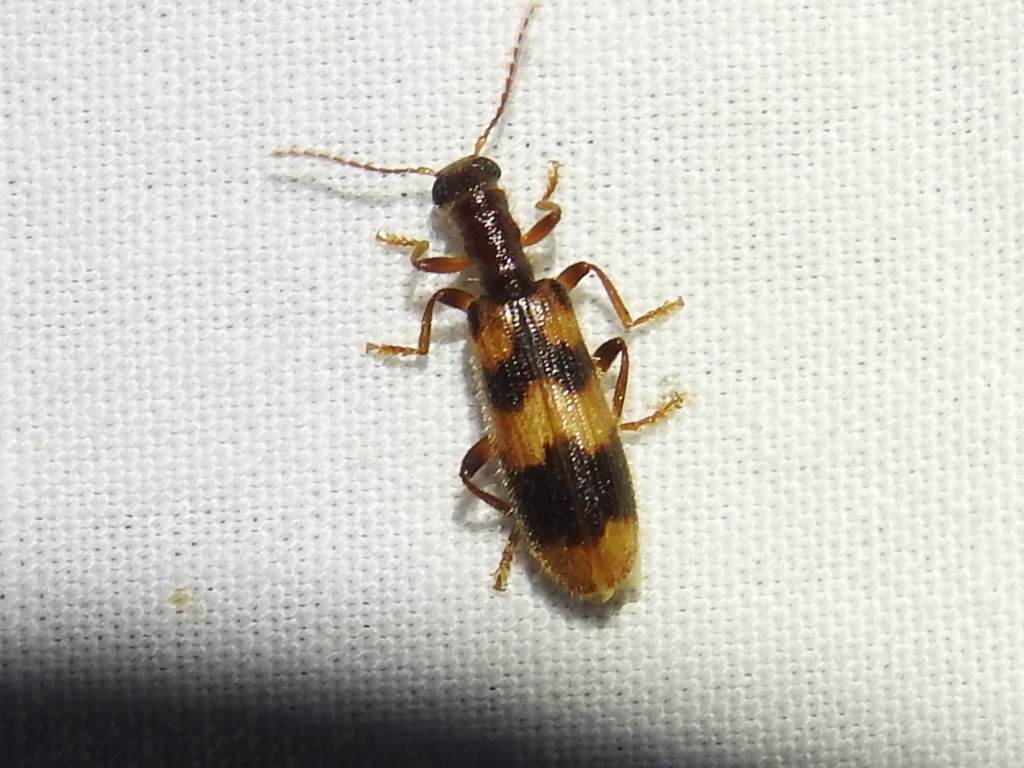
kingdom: Animalia
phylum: Arthropoda
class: Insecta
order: Coleoptera
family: Cleridae
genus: Cymatodera
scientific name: Cymatodera sirpata
